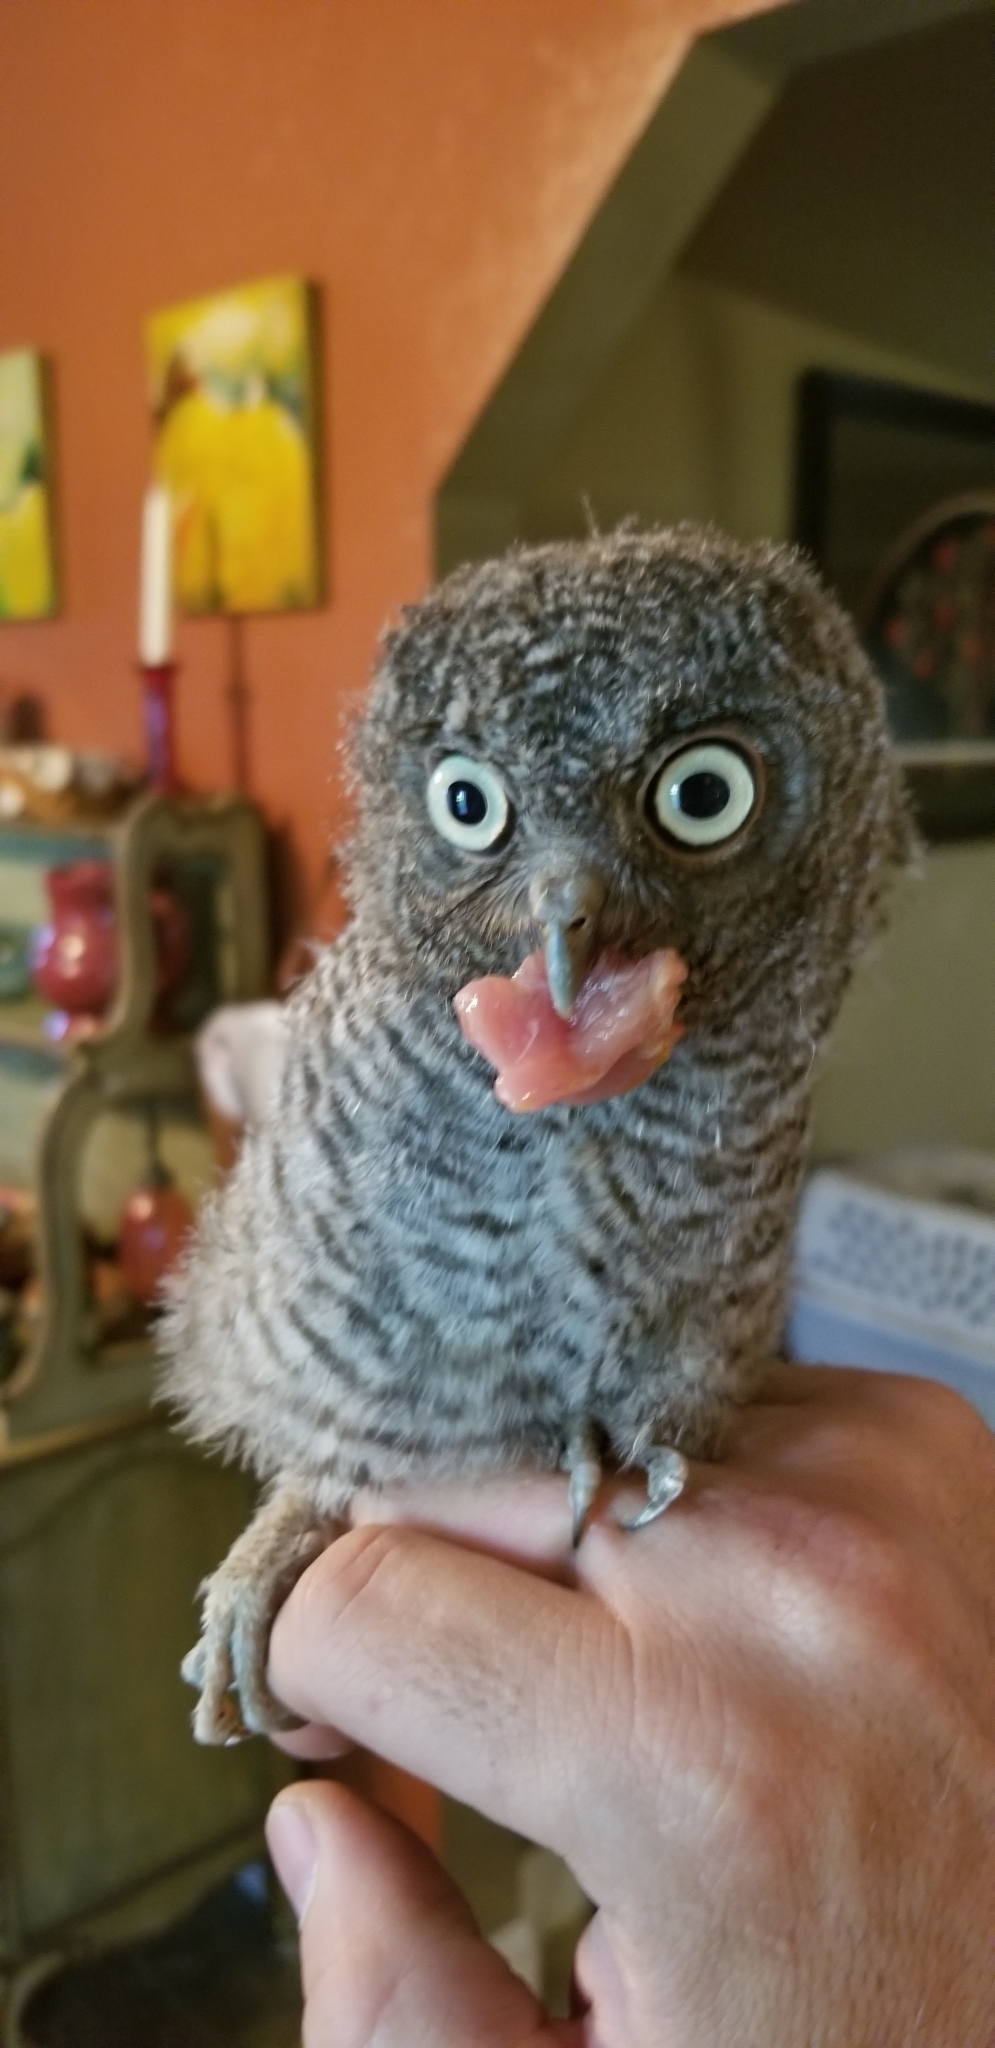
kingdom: Animalia
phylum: Chordata
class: Aves
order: Strigiformes
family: Strigidae
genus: Megascops
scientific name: Megascops asio
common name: Eastern screech-owl
